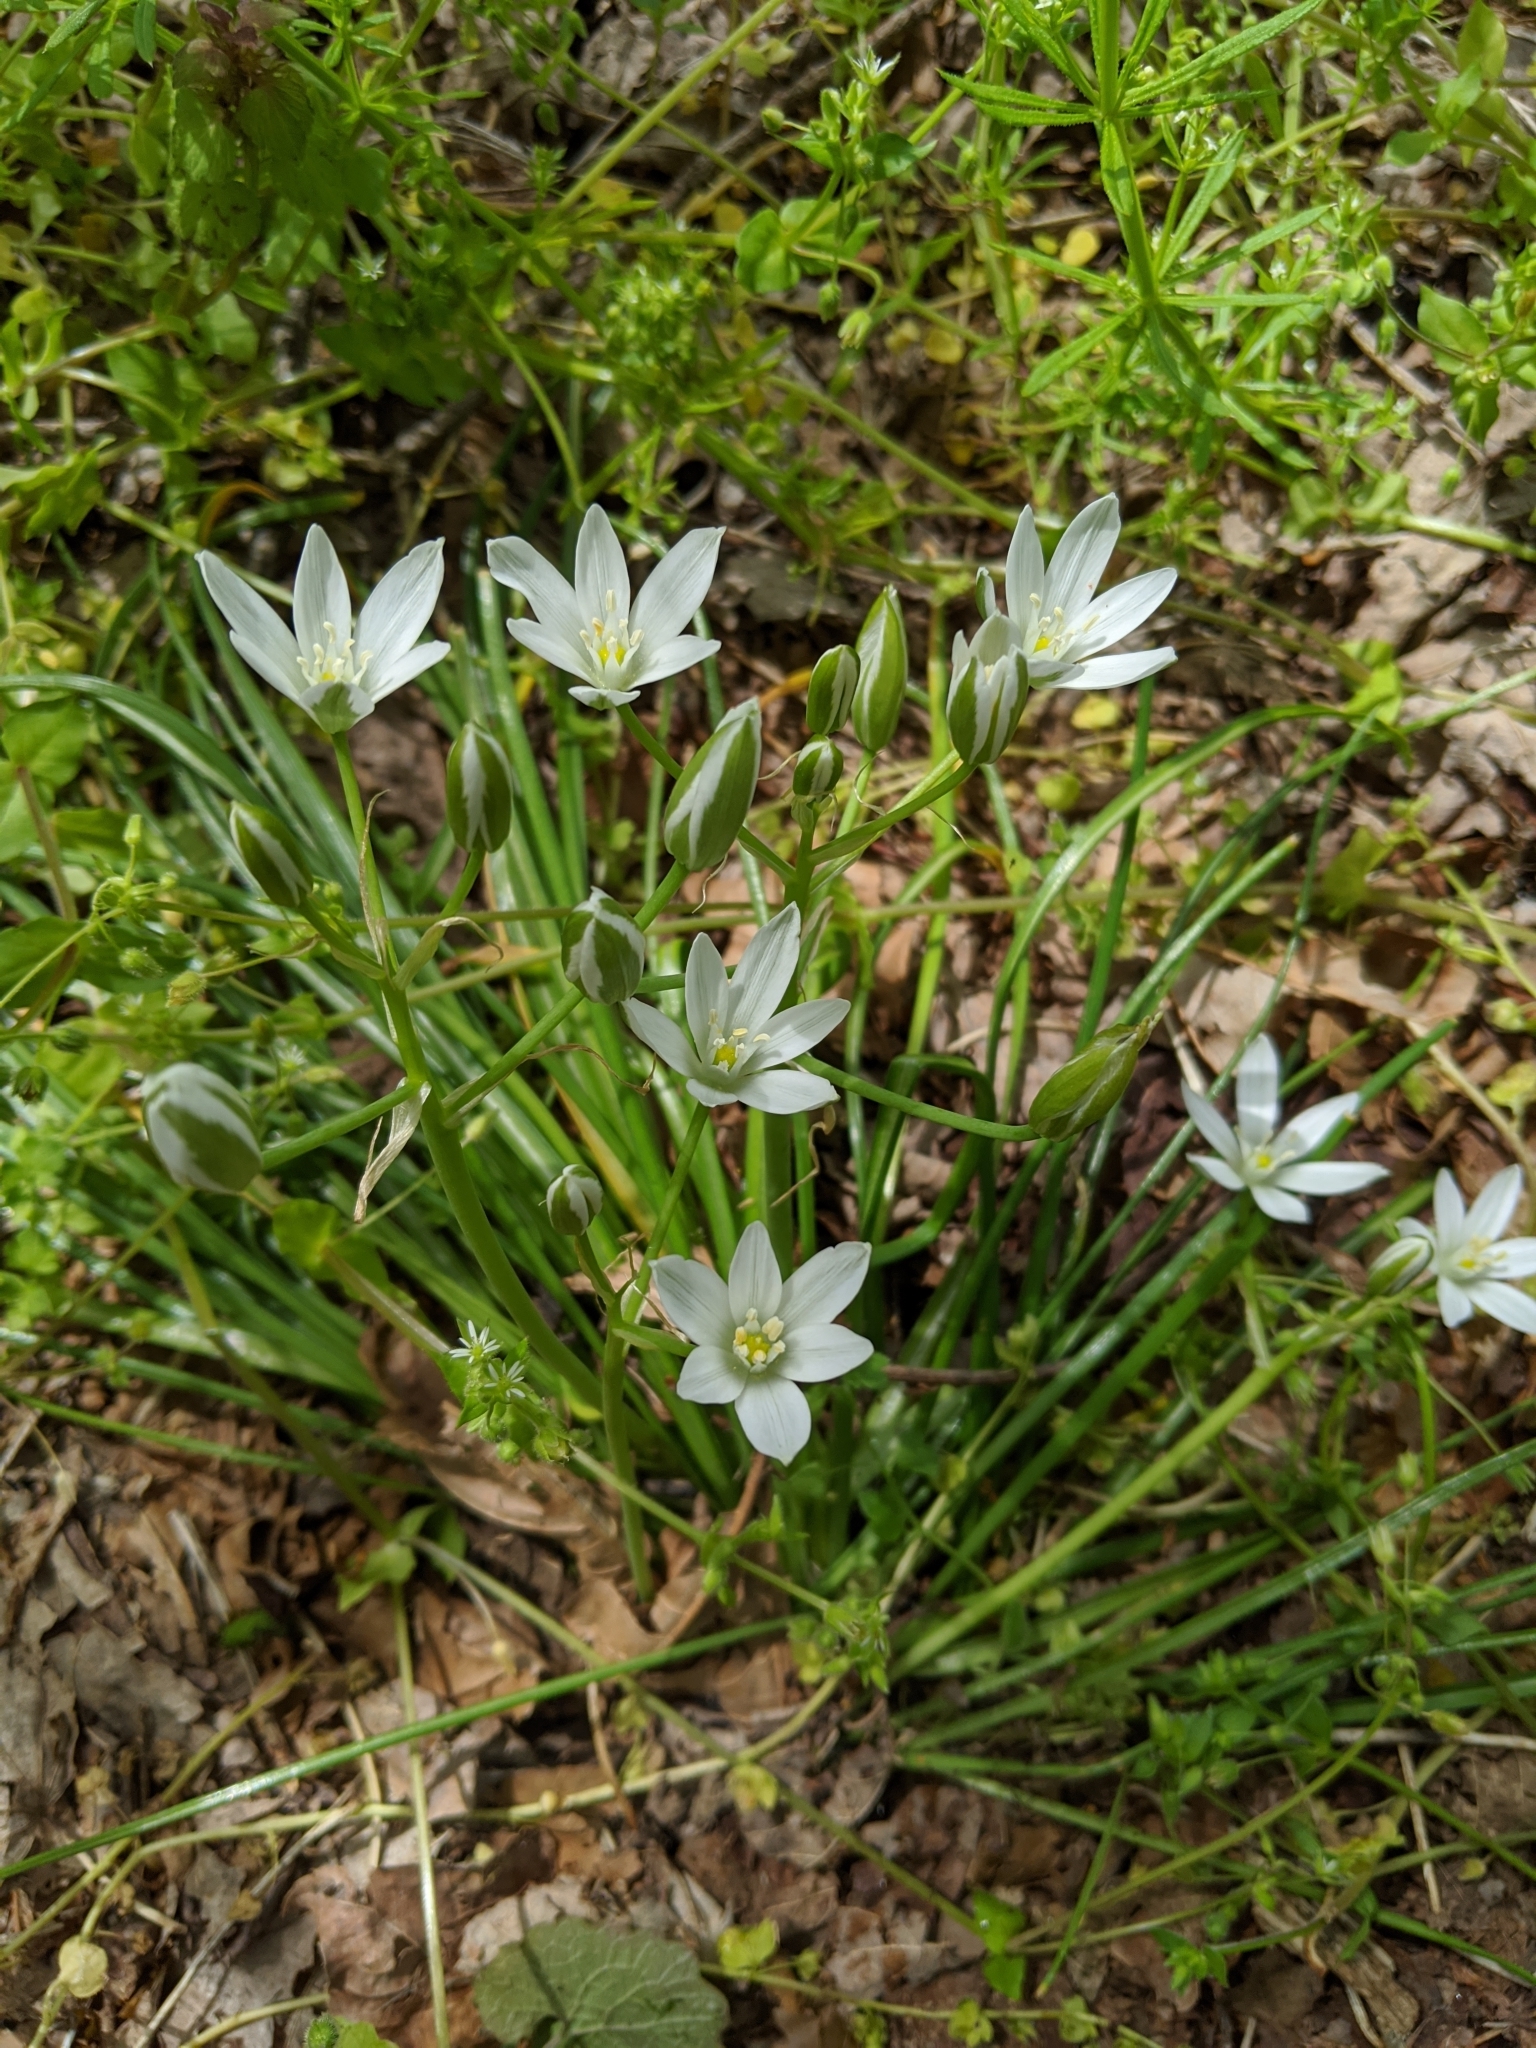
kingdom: Plantae
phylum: Tracheophyta
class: Liliopsida
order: Asparagales
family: Asparagaceae
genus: Ornithogalum
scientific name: Ornithogalum umbellatum
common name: Garden star-of-bethlehem
